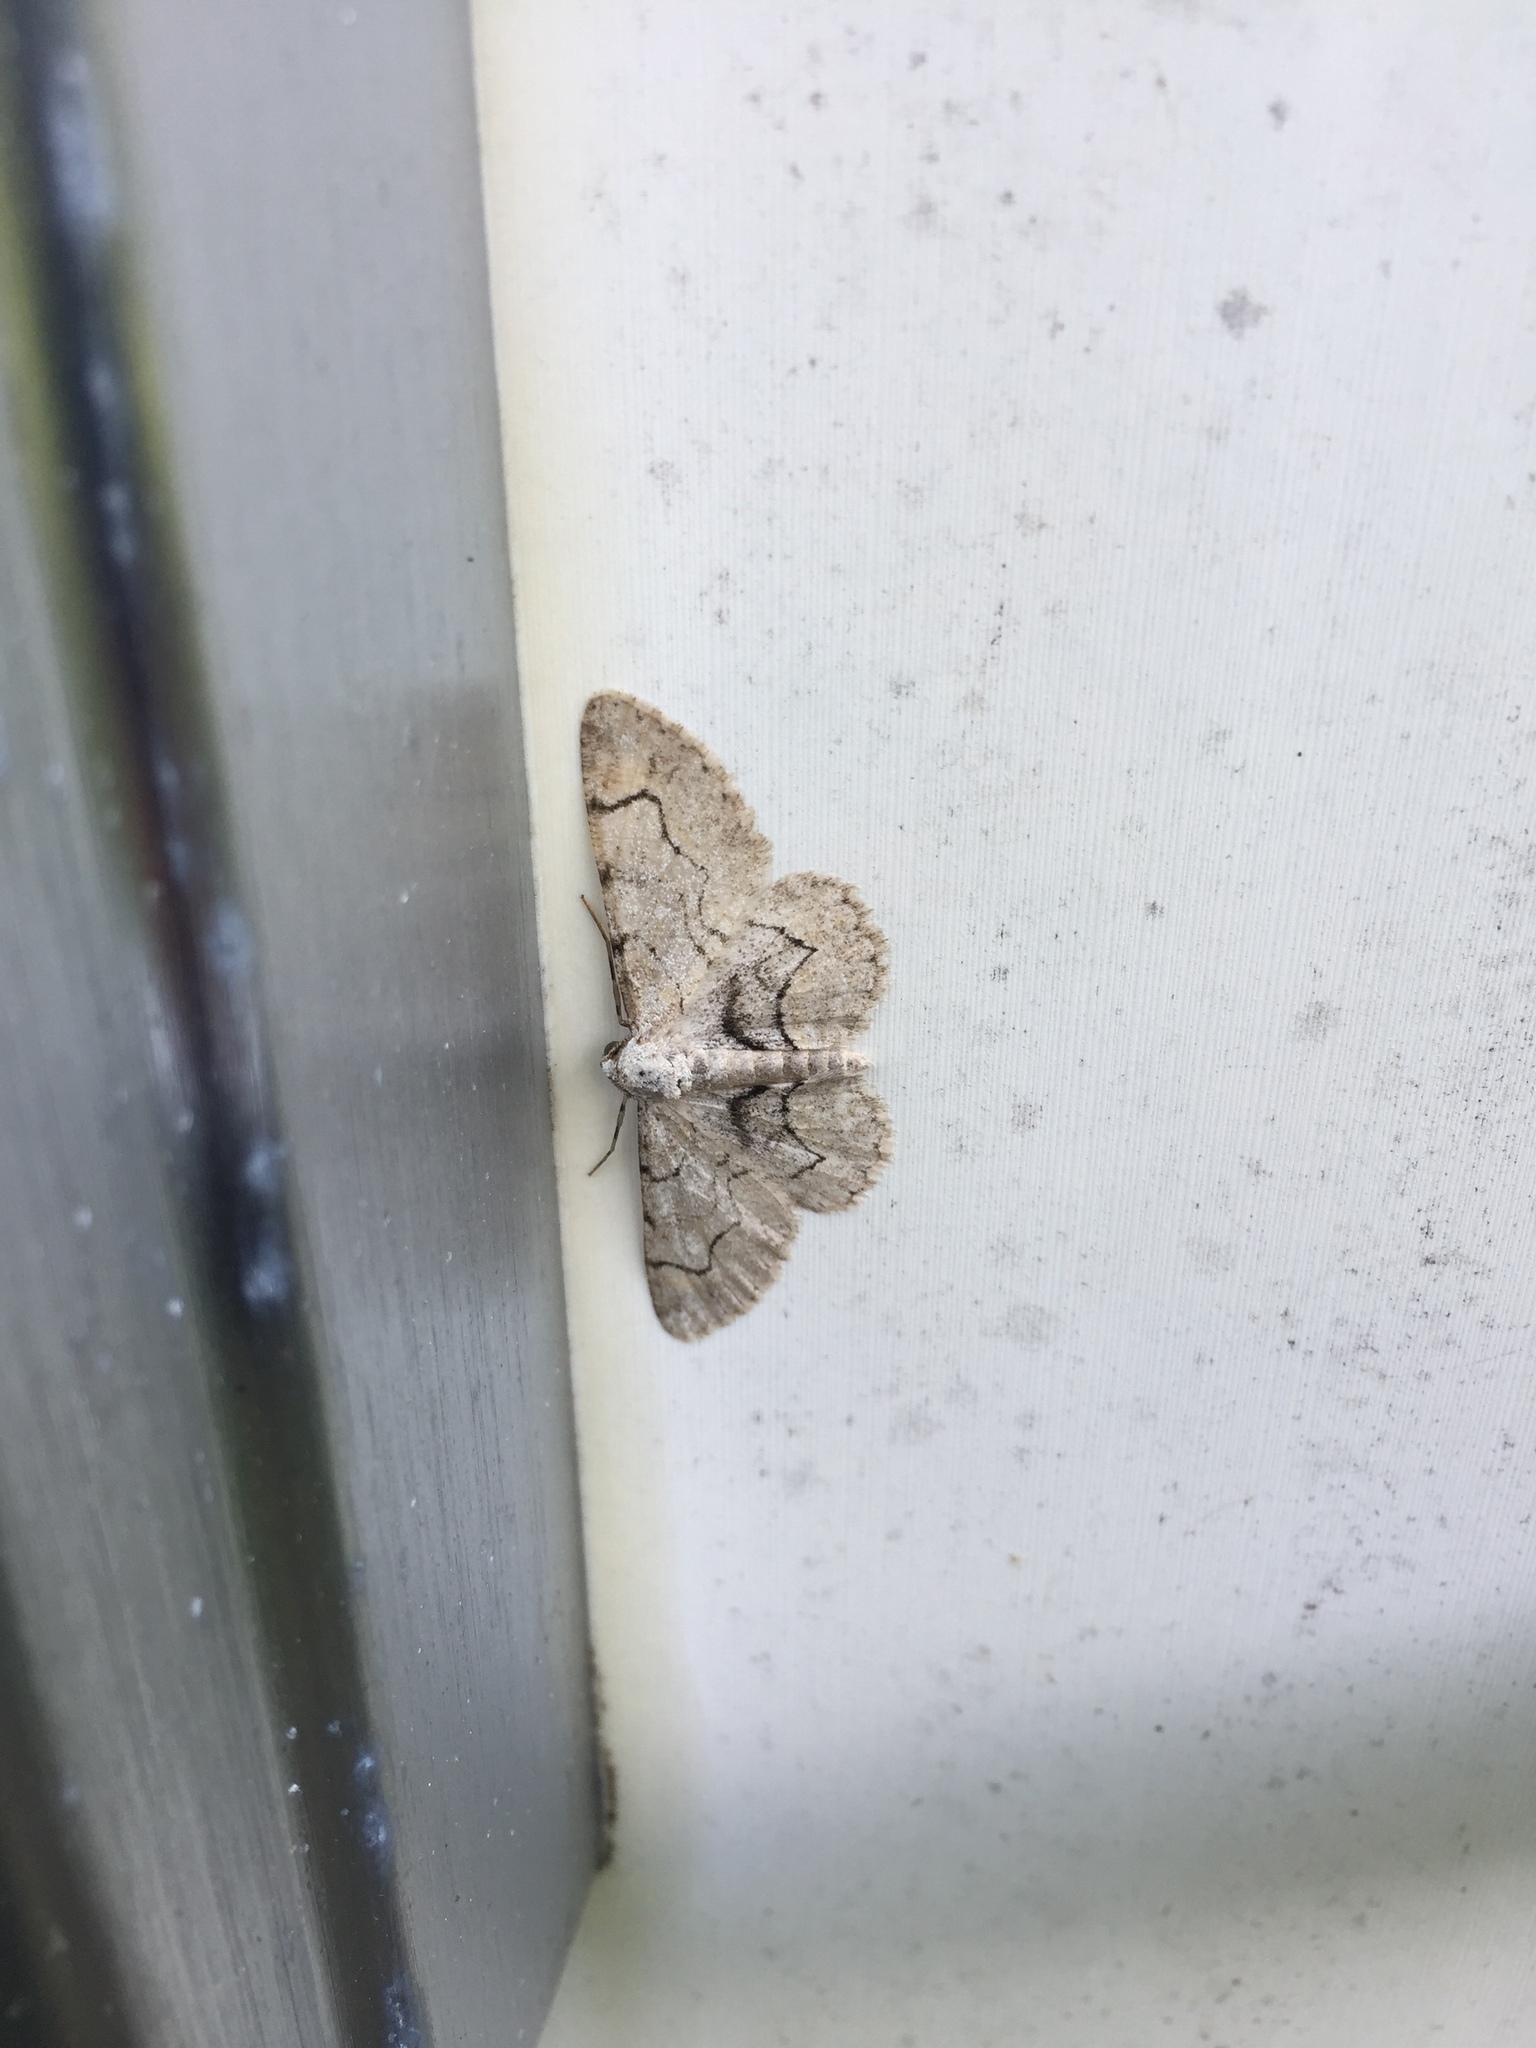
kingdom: Animalia
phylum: Arthropoda
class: Insecta
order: Lepidoptera
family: Geometridae
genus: Iridopsis
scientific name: Iridopsis larvaria
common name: Bent-line gray
